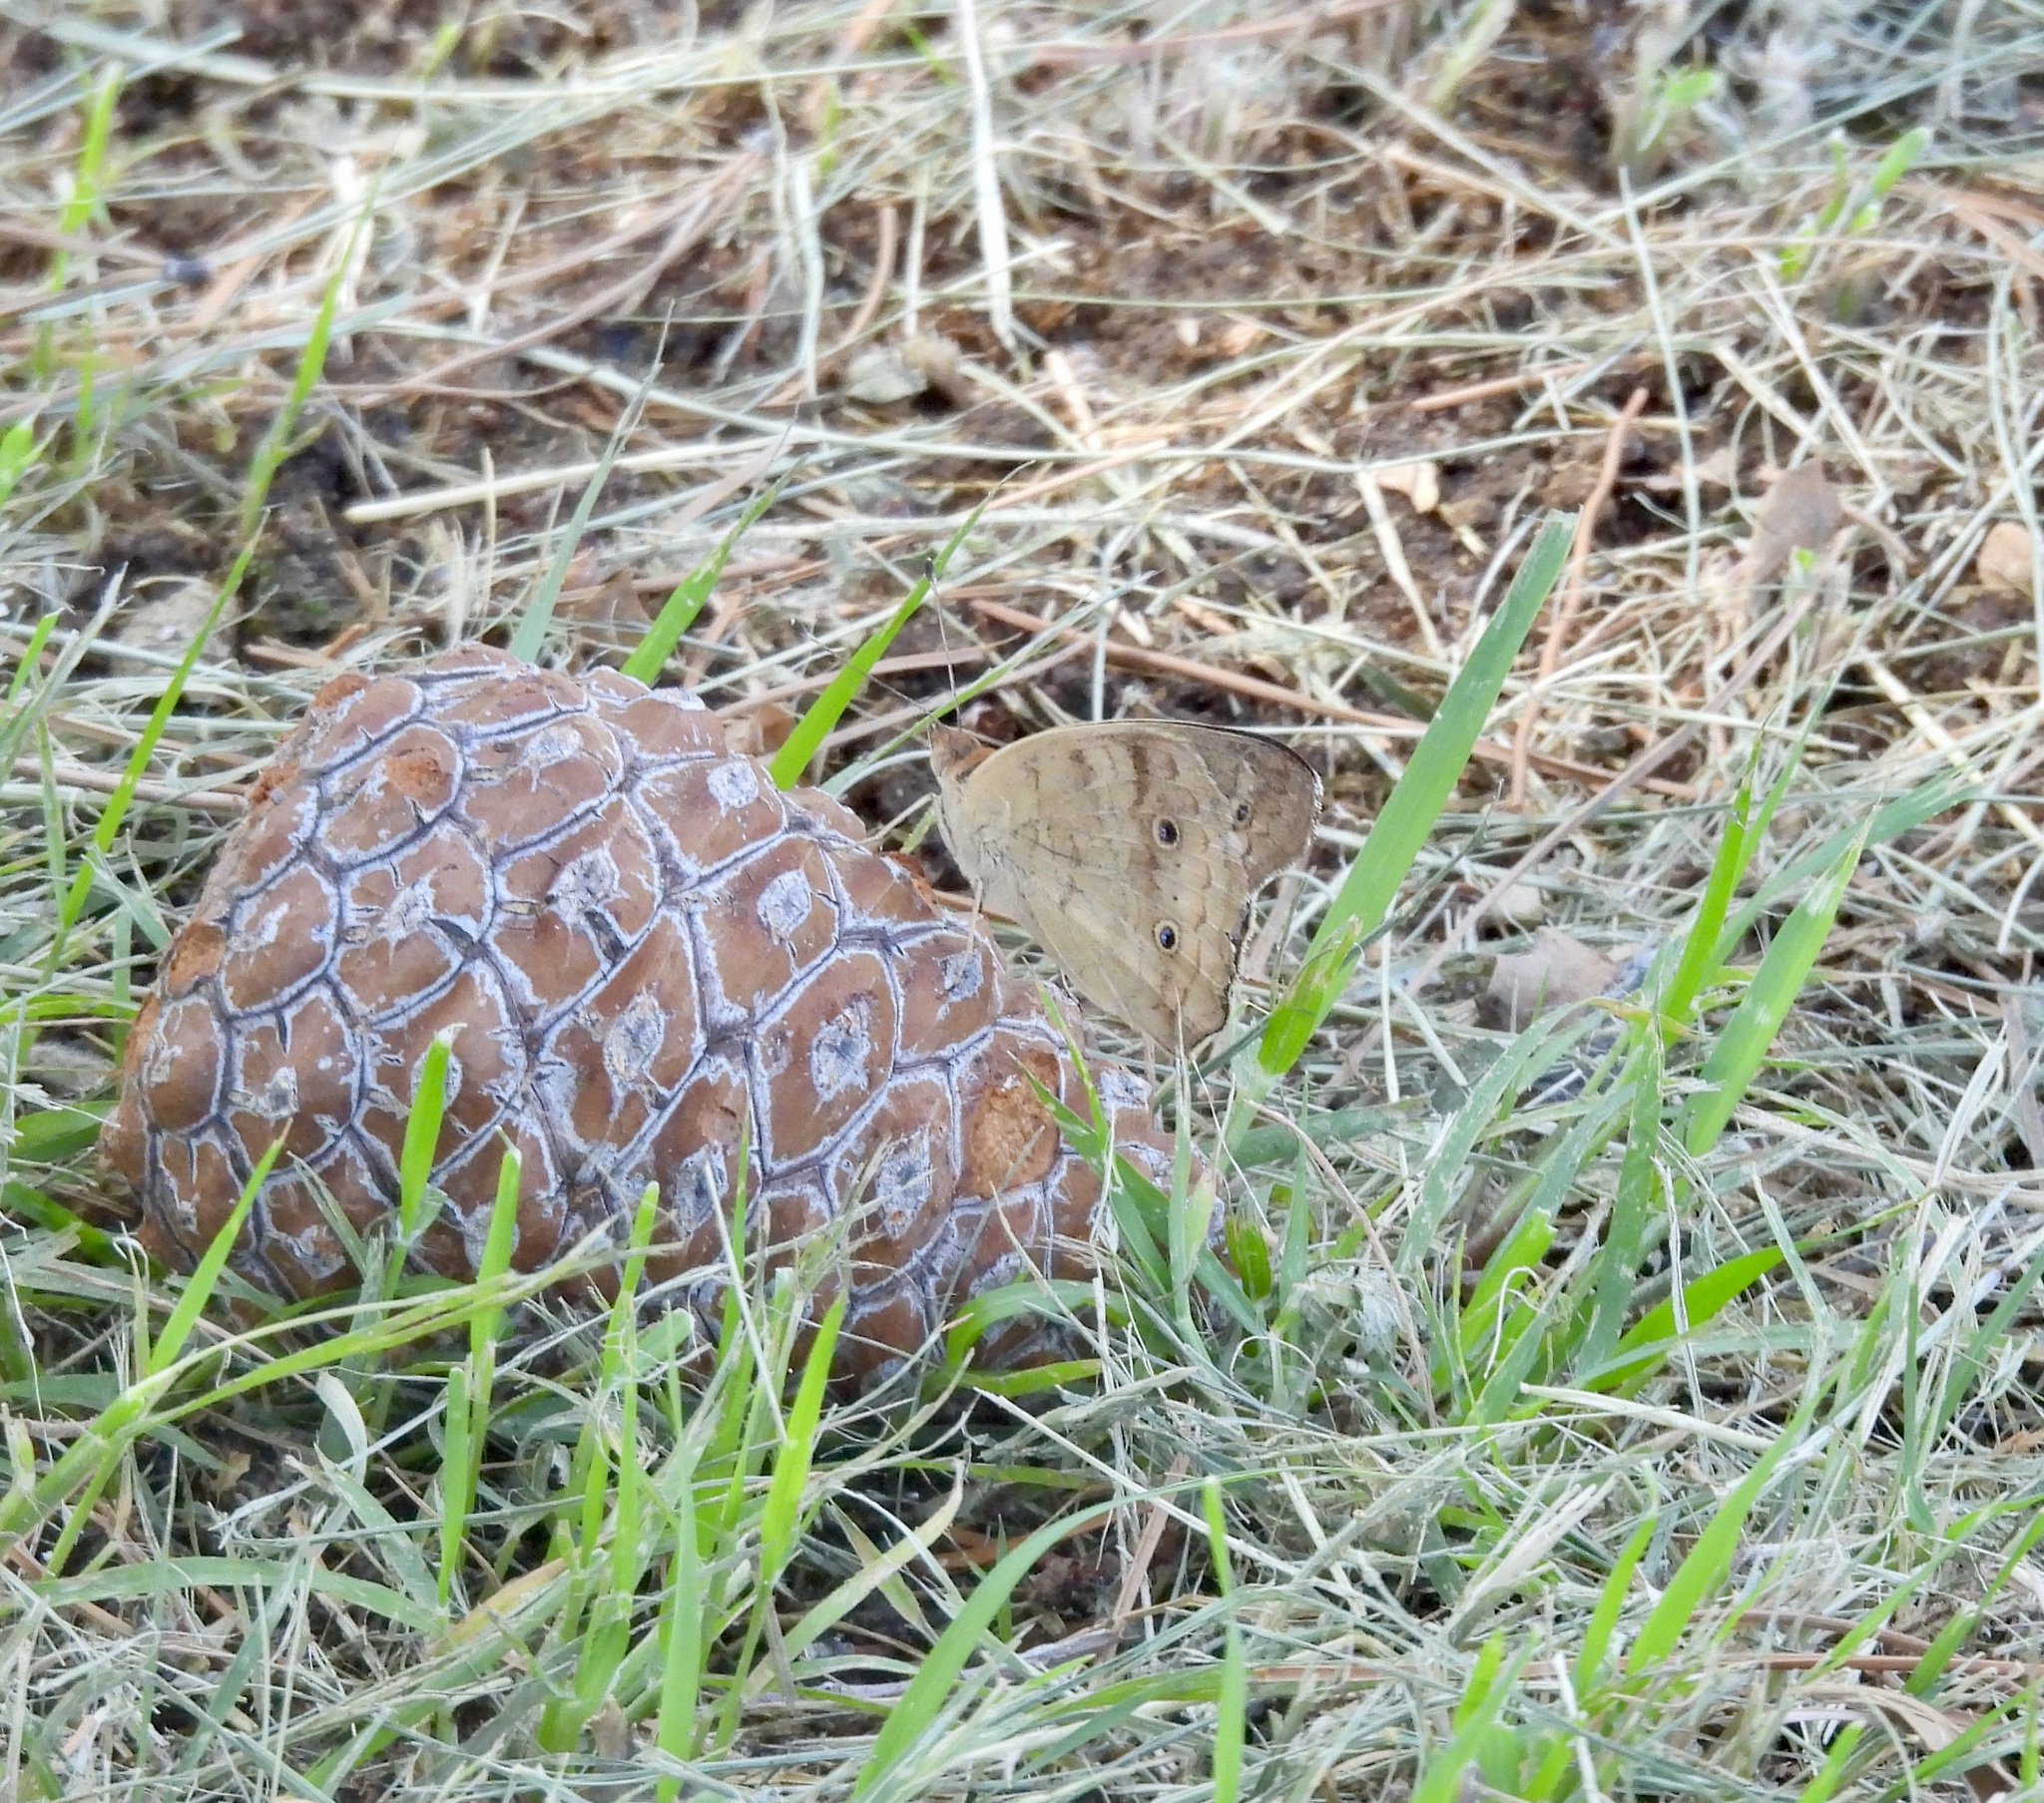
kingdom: Animalia
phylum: Arthropoda
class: Insecta
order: Lepidoptera
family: Nymphalidae
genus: Junonia
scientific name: Junonia coenia
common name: Common buckeye
